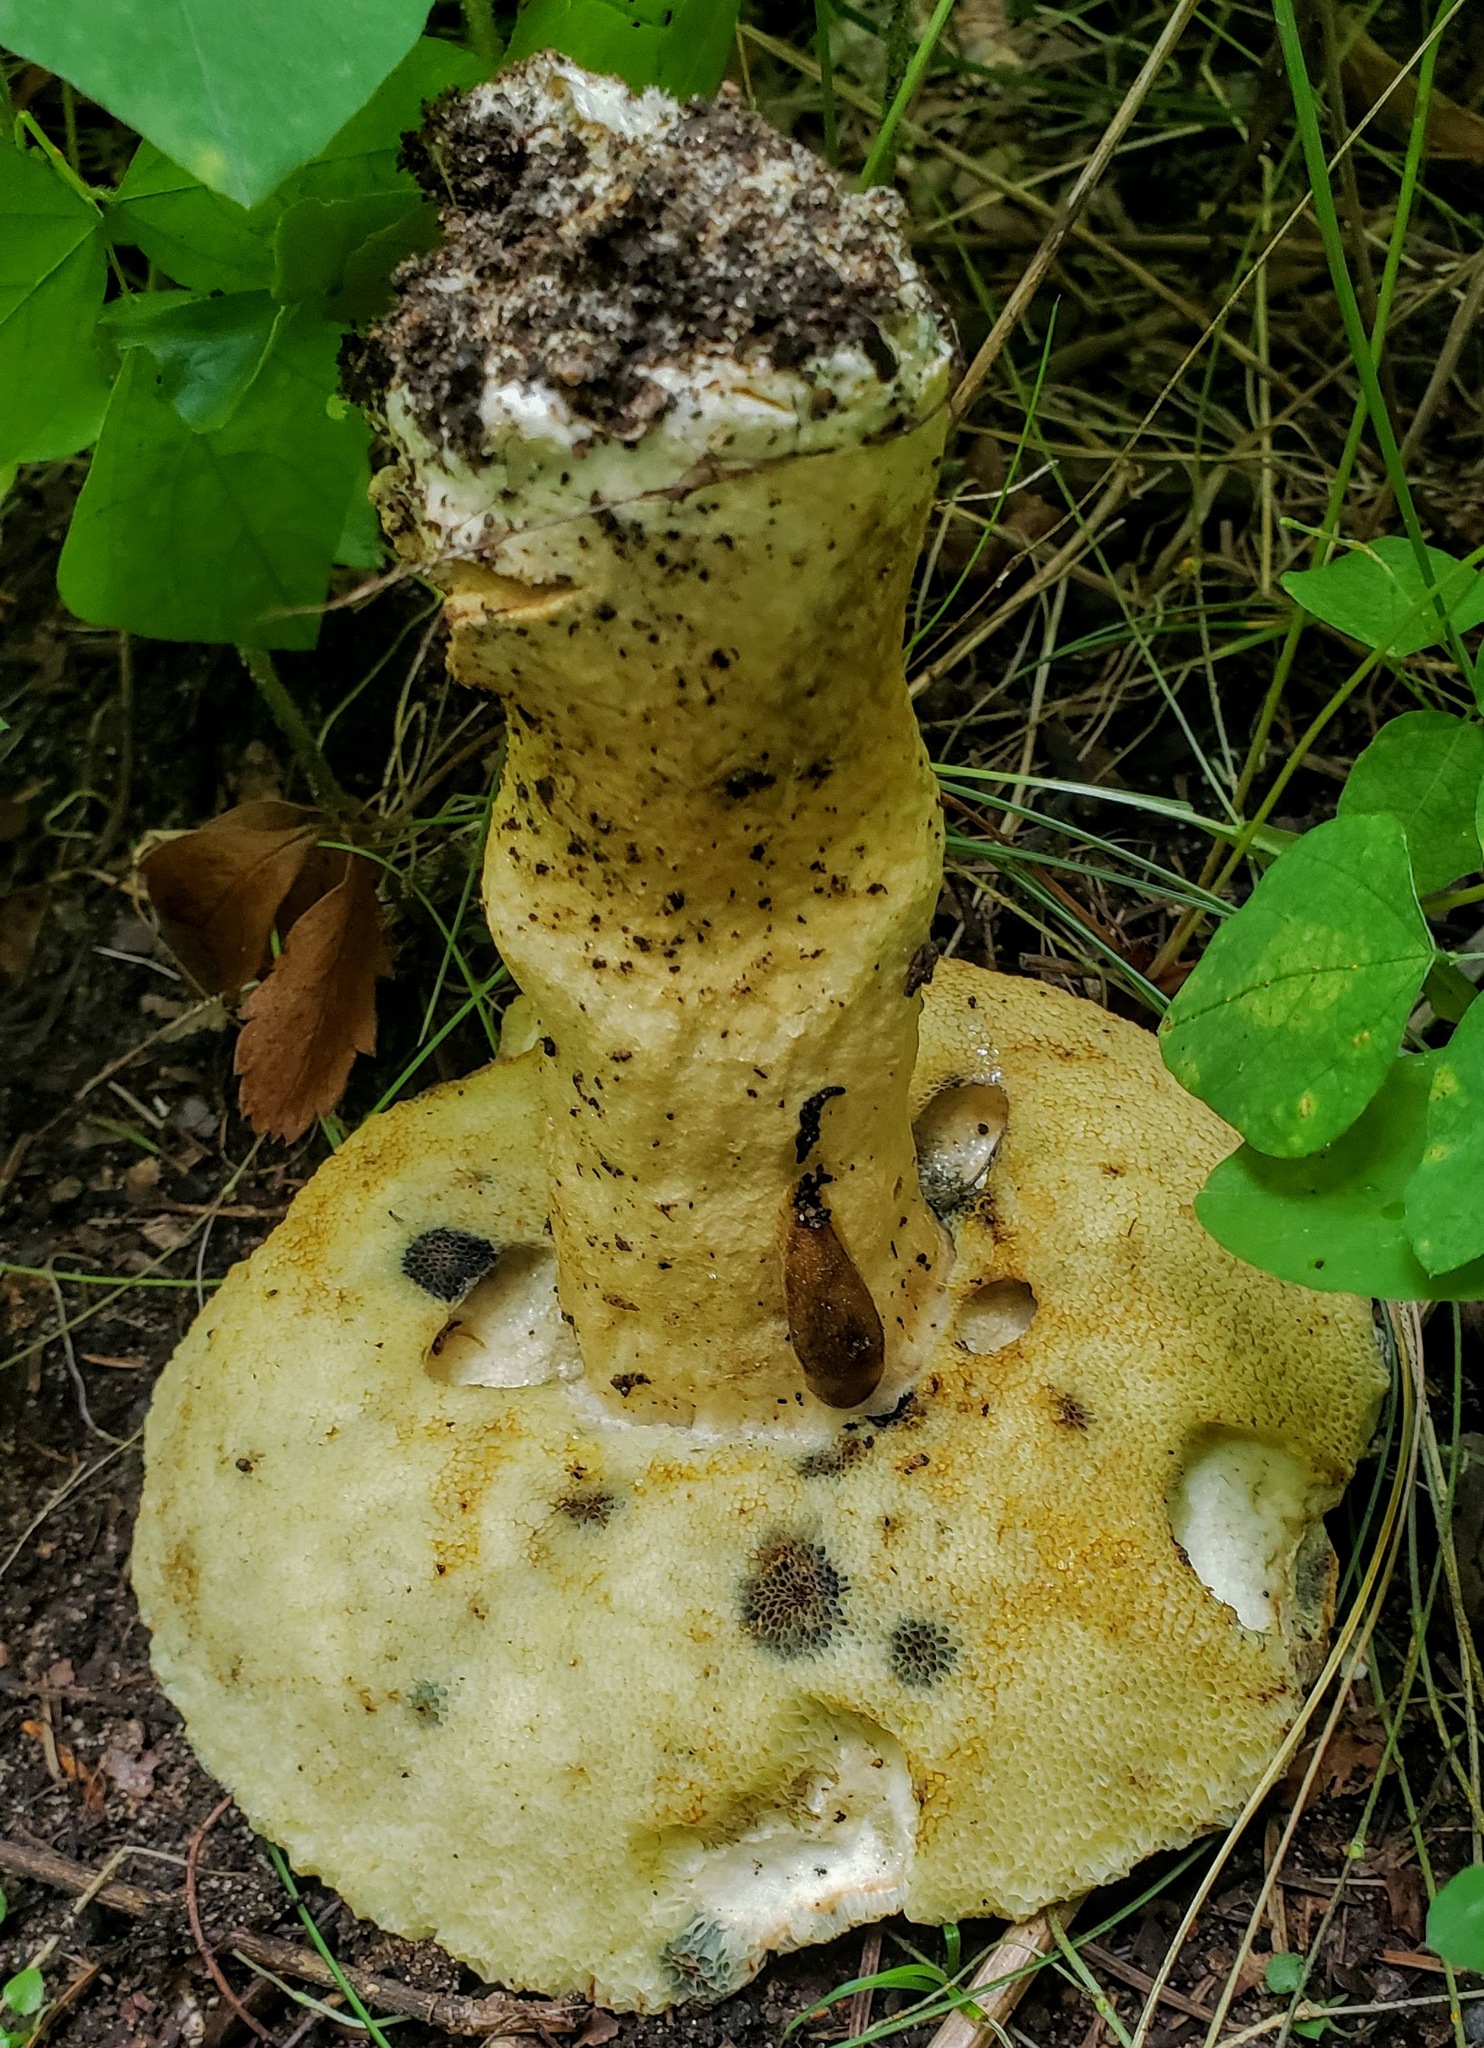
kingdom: Fungi
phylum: Basidiomycota
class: Agaricomycetes
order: Boletales
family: Gyroporaceae
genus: Gyroporus
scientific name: Gyroporus cyanescens
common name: Cornflower bolete
